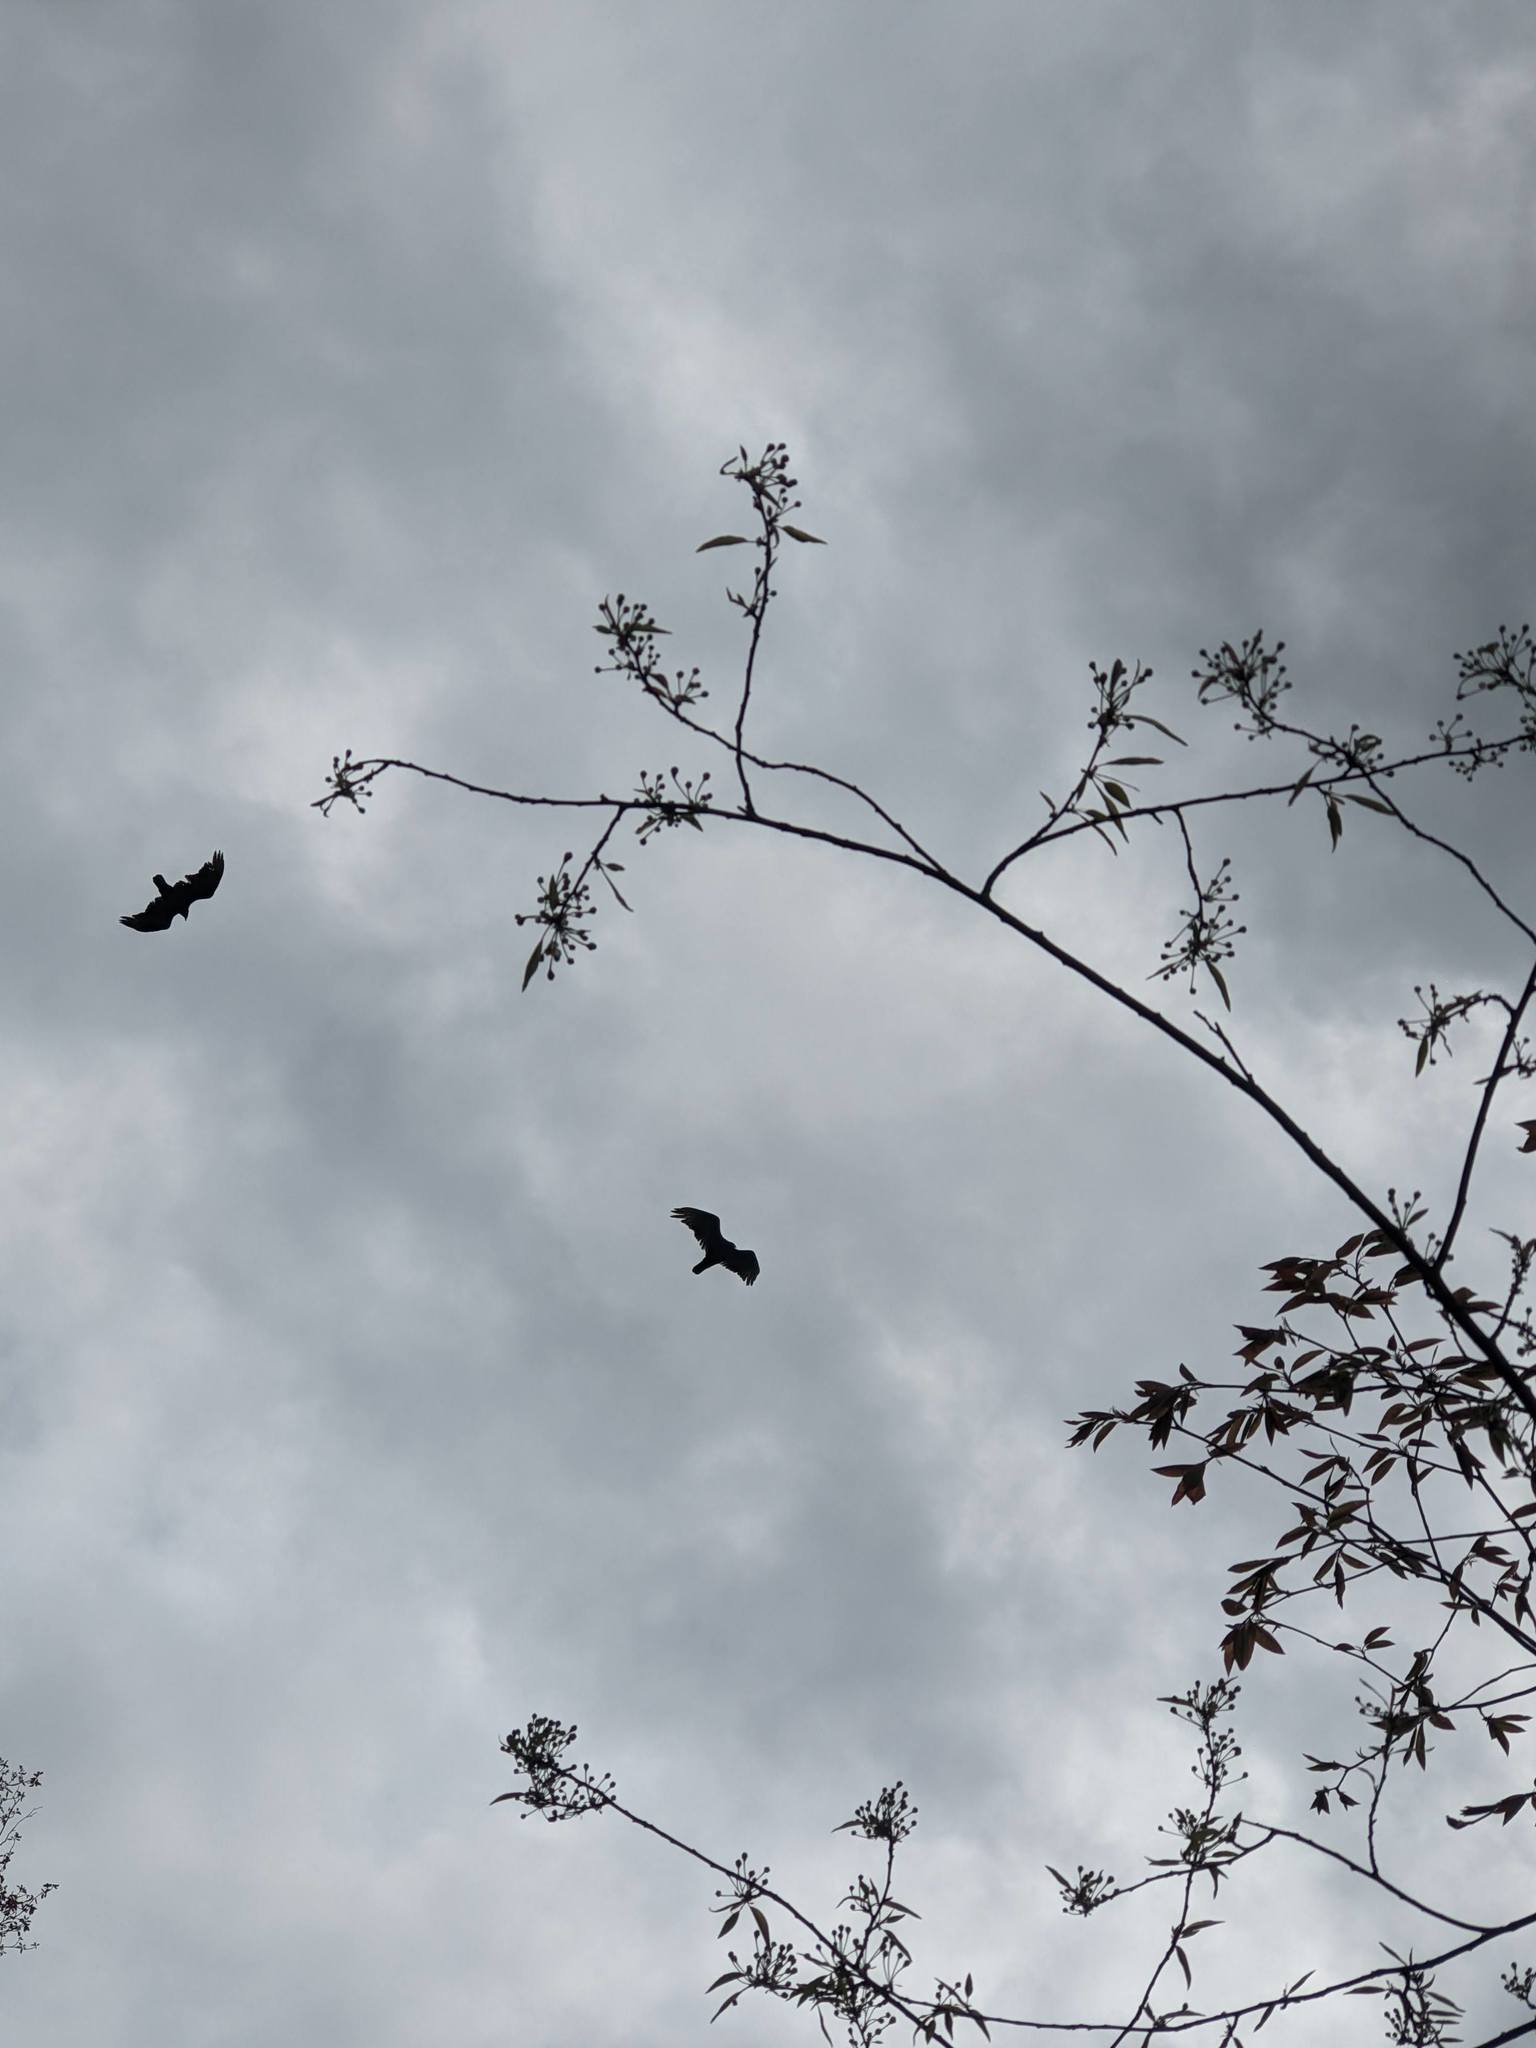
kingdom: Animalia
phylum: Chordata
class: Aves
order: Accipitriformes
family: Cathartidae
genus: Cathartes
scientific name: Cathartes aura
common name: Turkey vulture
